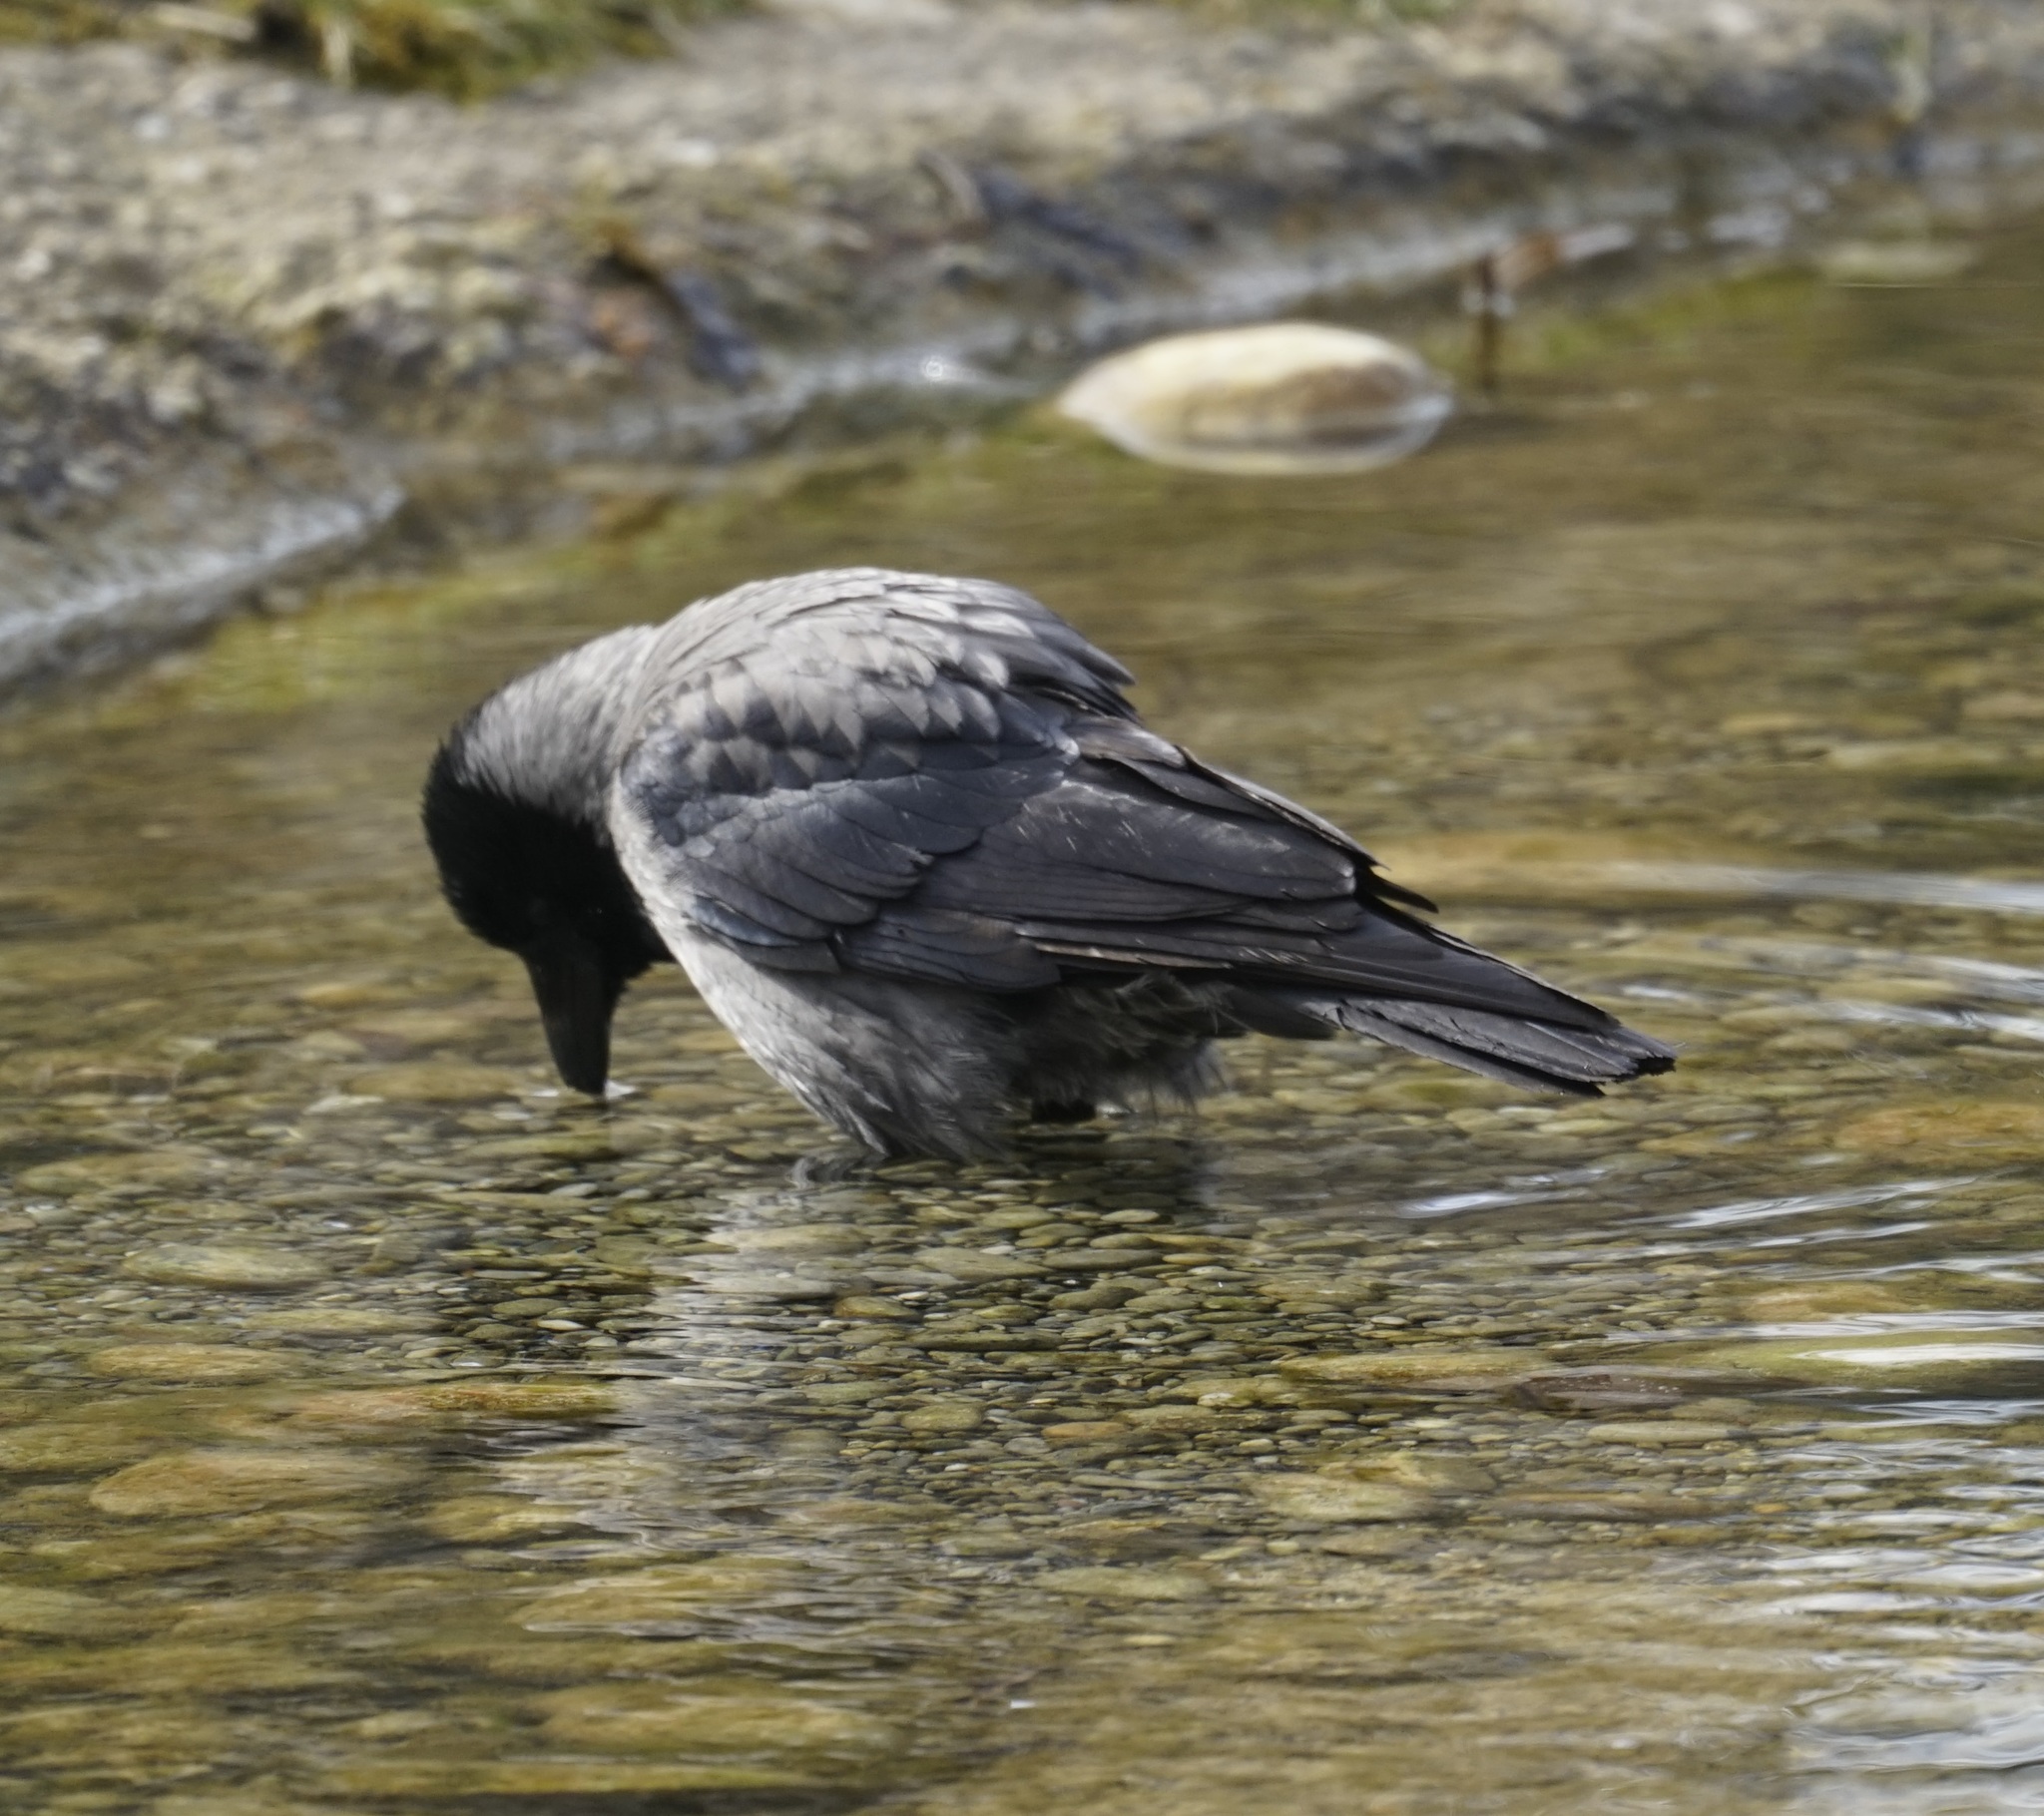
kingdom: Animalia
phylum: Chordata
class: Aves
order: Passeriformes
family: Corvidae
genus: Corvus
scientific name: Corvus cornix
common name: Hooded crow
